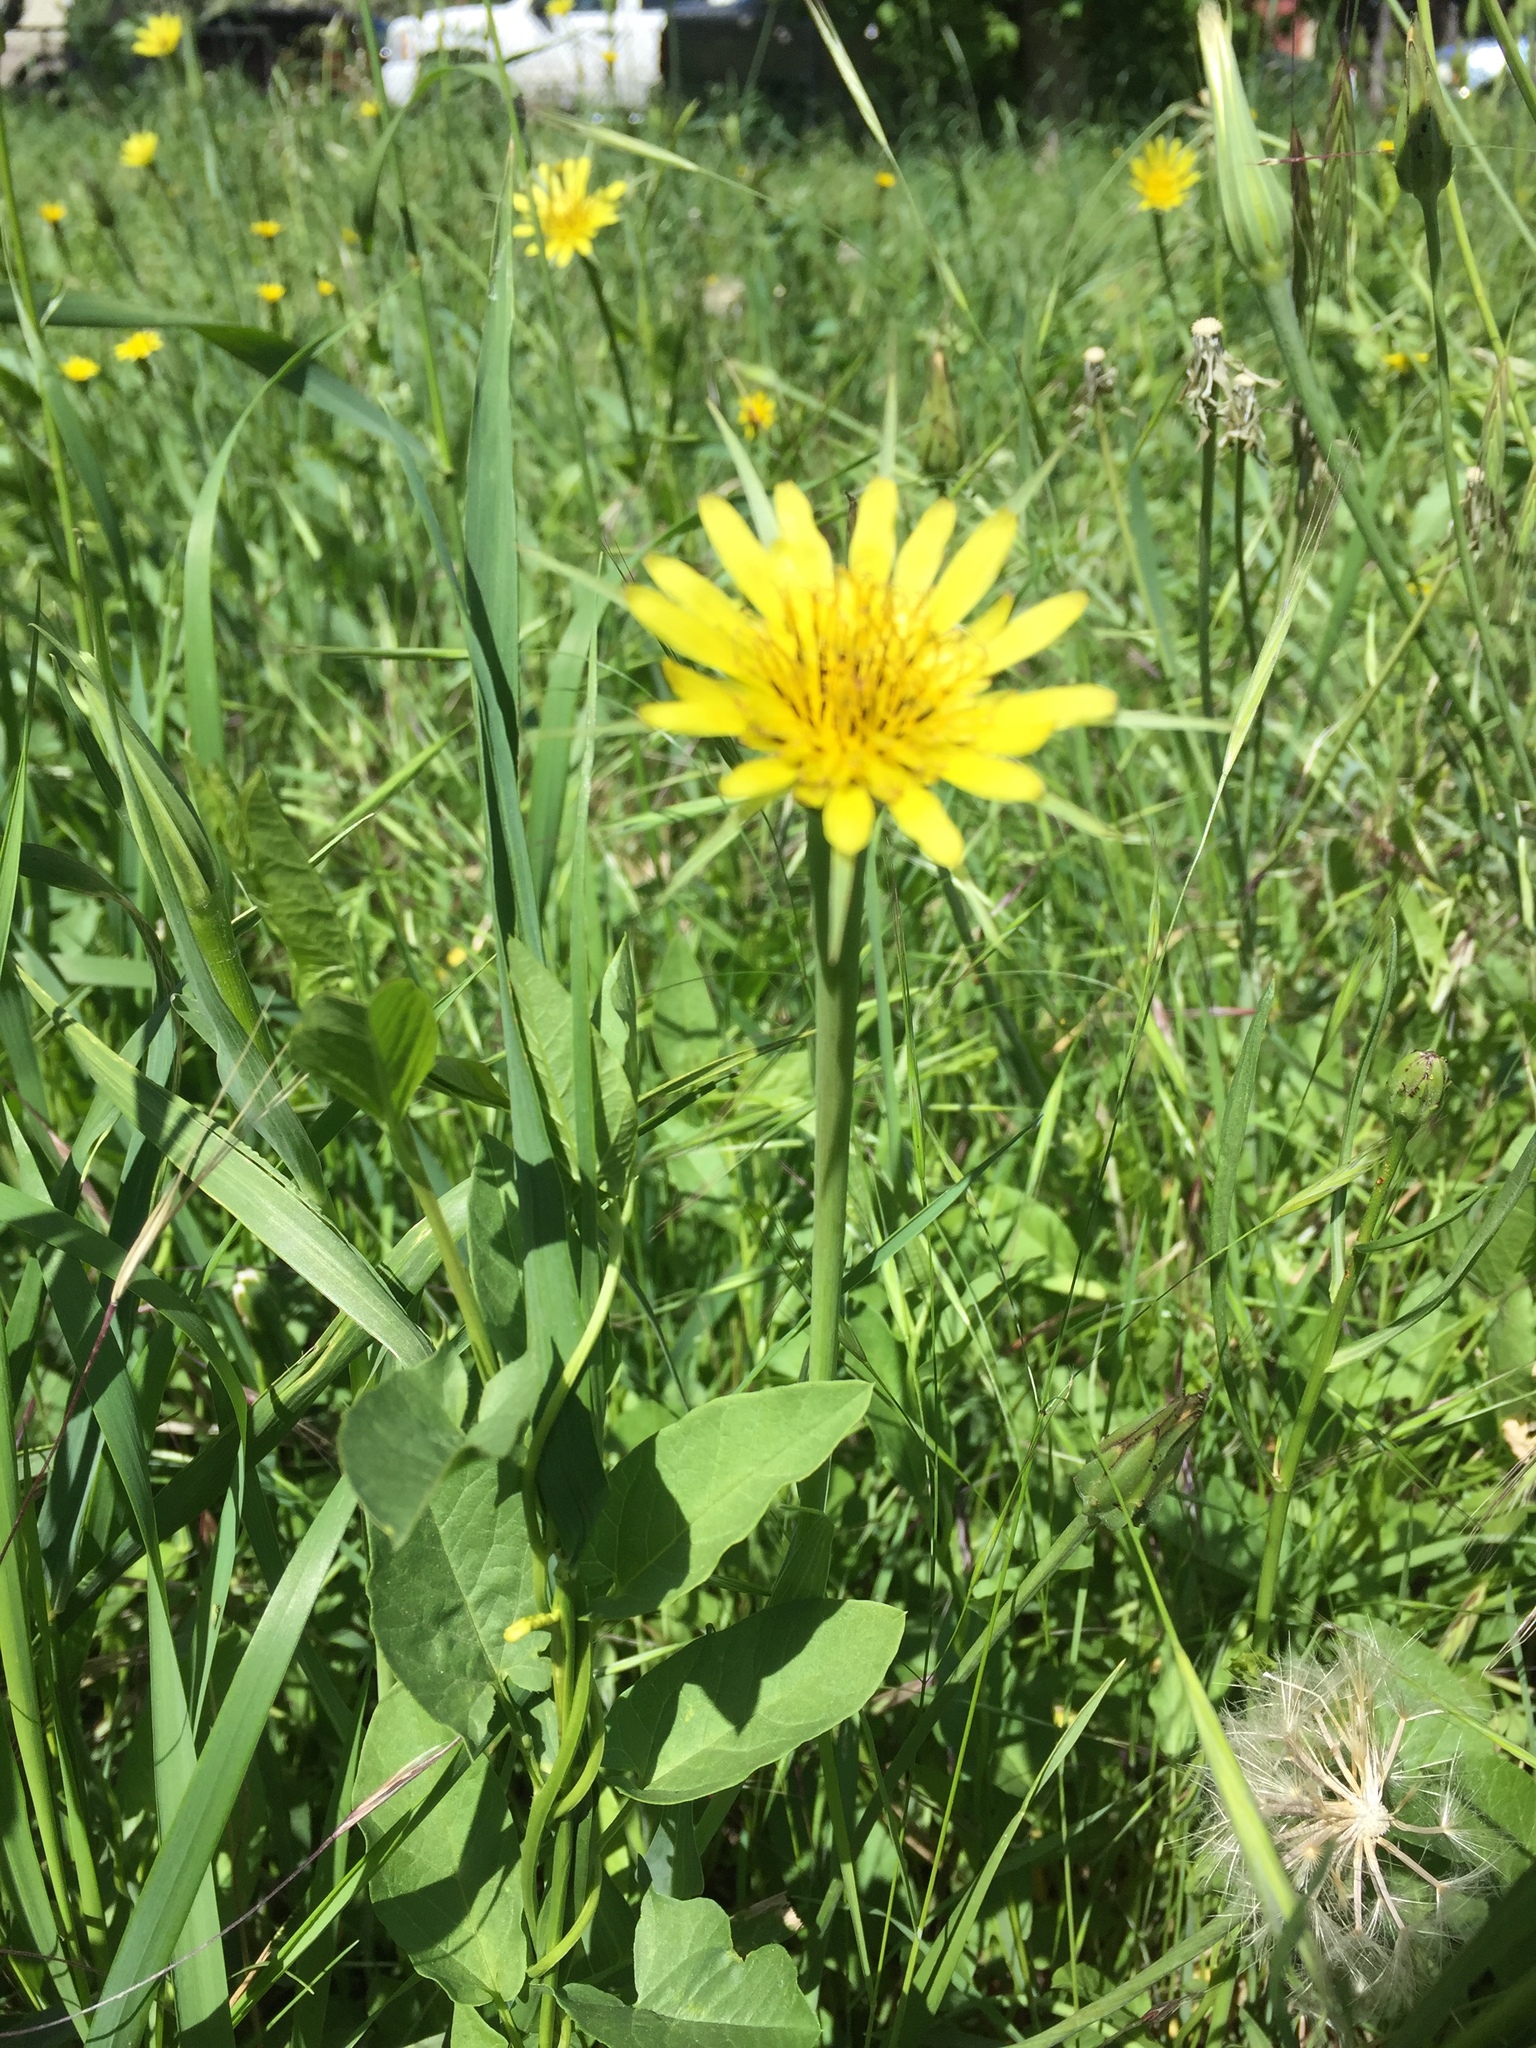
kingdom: Plantae
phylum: Tracheophyta
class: Magnoliopsida
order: Asterales
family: Asteraceae
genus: Tragopogon
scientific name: Tragopogon dubius
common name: Yellow salsify
